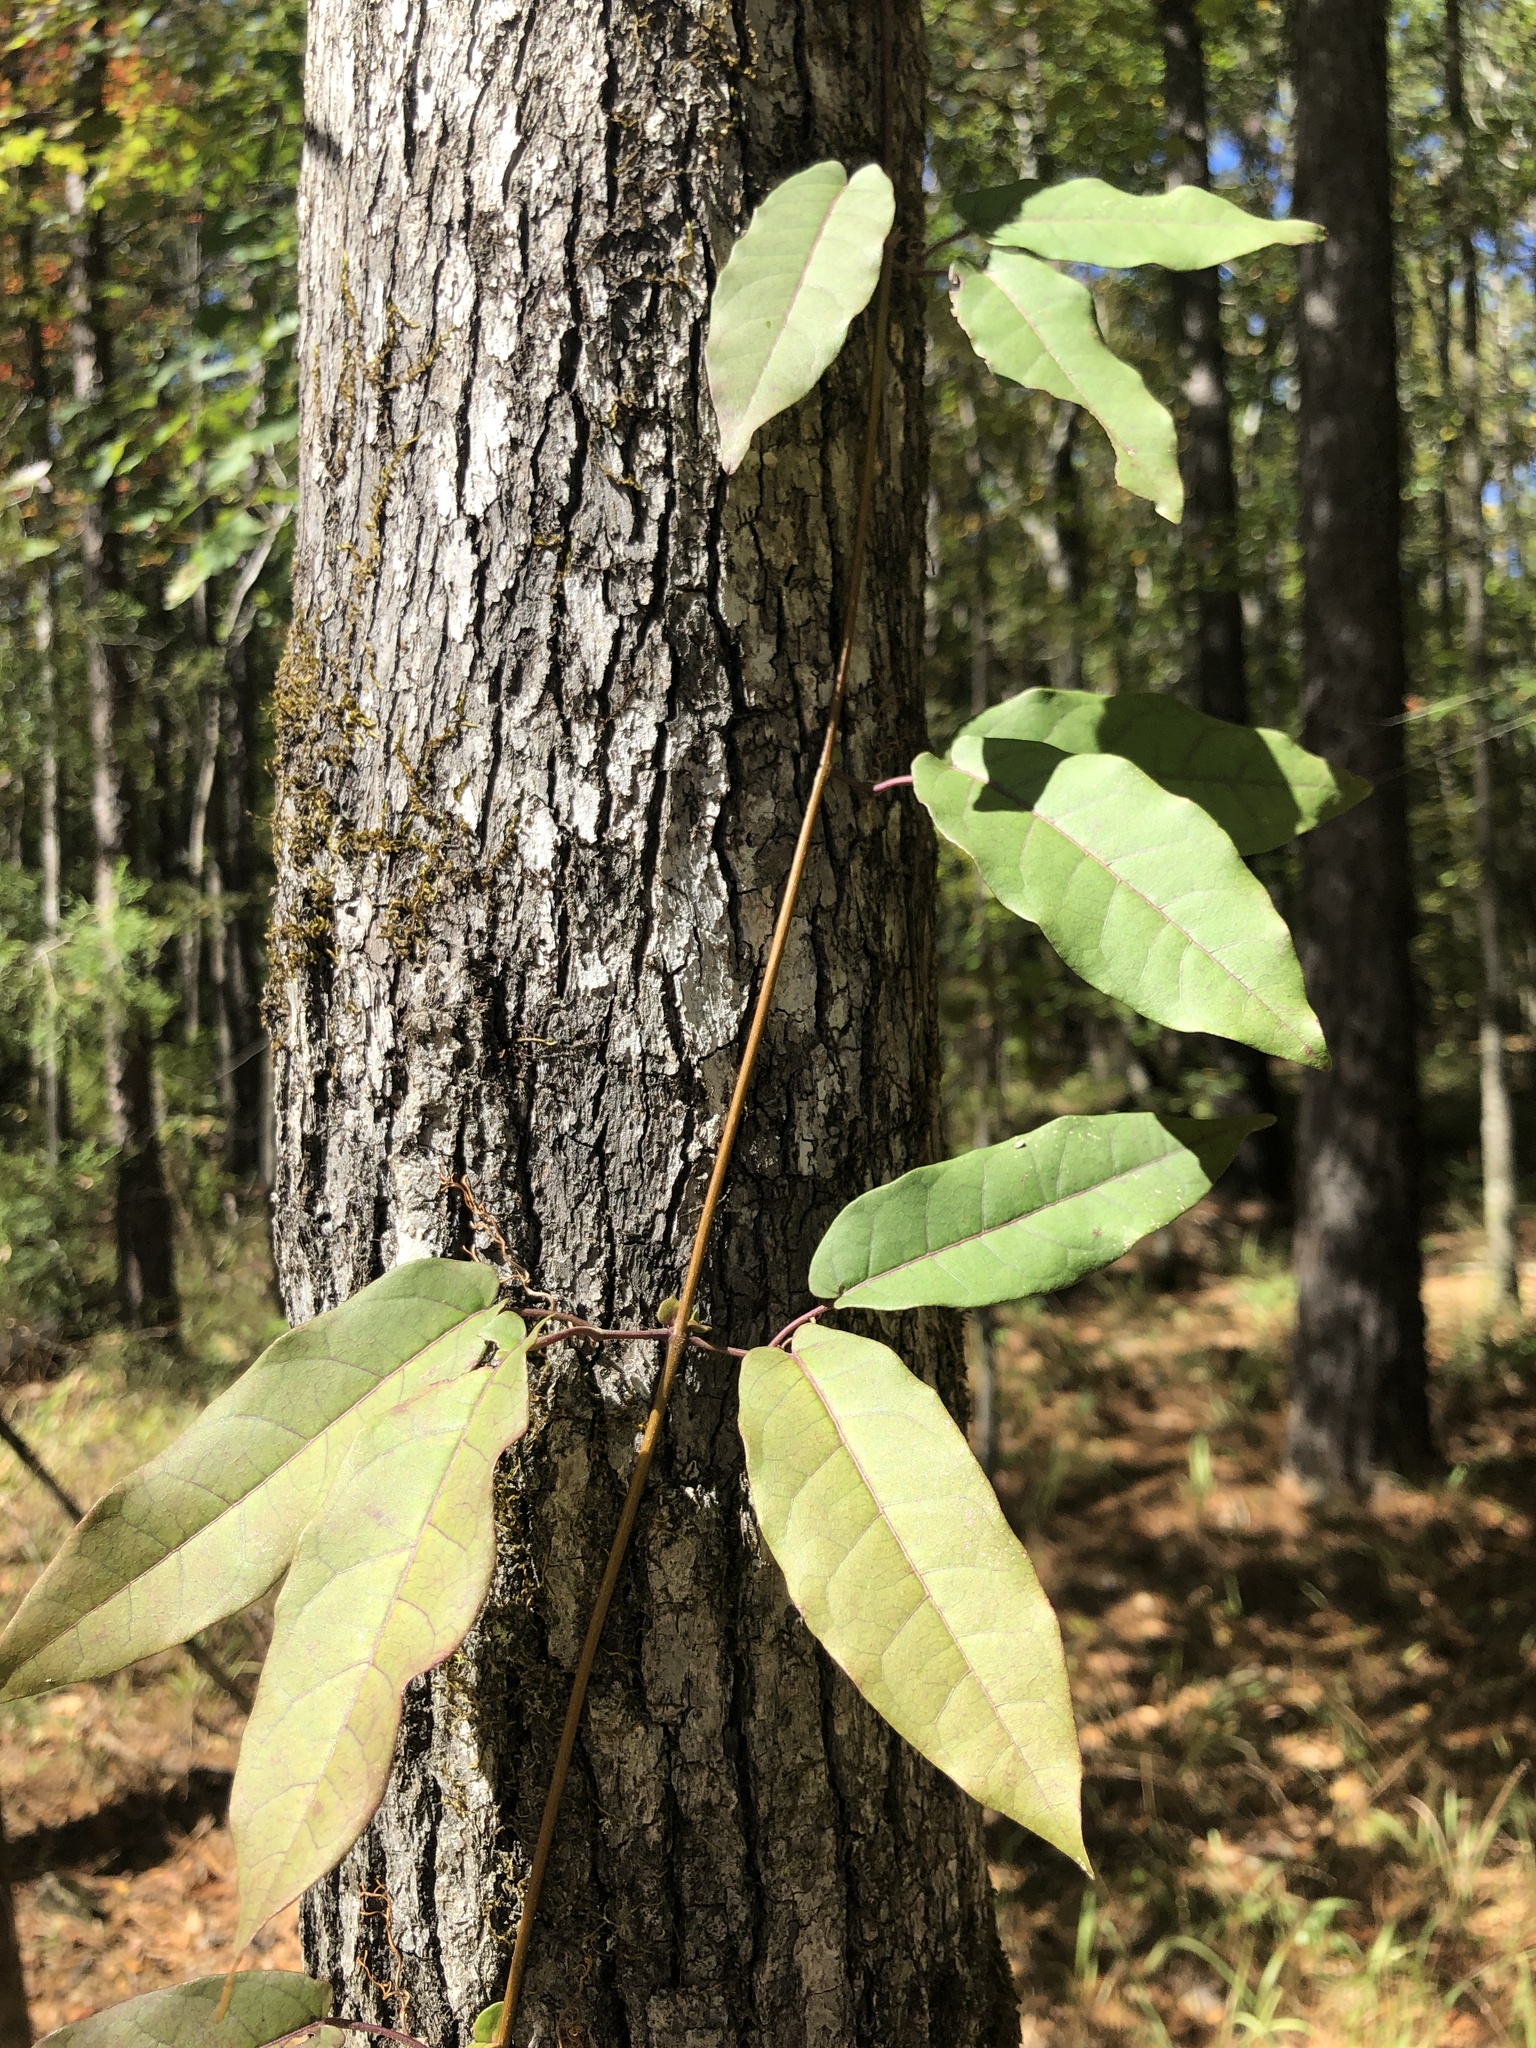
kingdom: Plantae
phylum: Tracheophyta
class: Magnoliopsida
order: Lamiales
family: Bignoniaceae
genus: Bignonia
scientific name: Bignonia capreolata
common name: Crossvine
